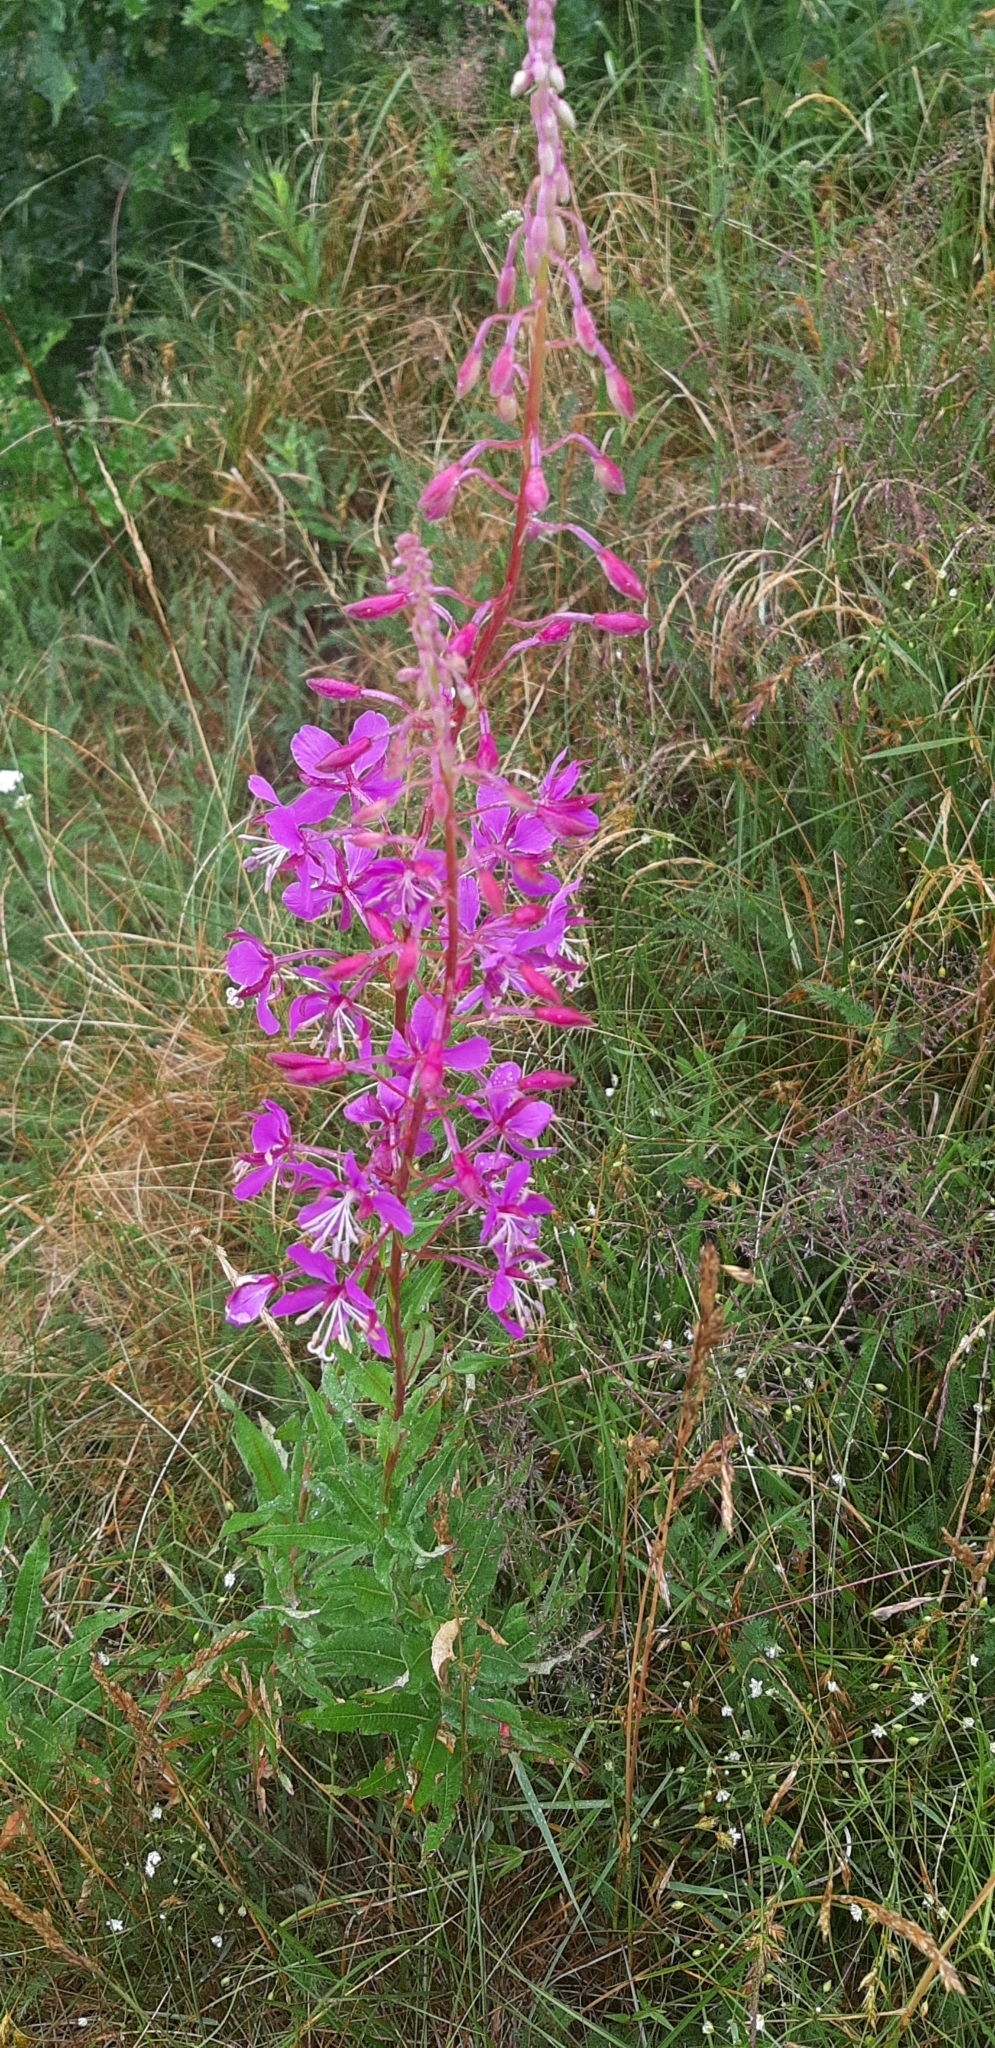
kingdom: Plantae
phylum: Tracheophyta
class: Magnoliopsida
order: Myrtales
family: Onagraceae
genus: Chamaenerion
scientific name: Chamaenerion angustifolium
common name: Fireweed
